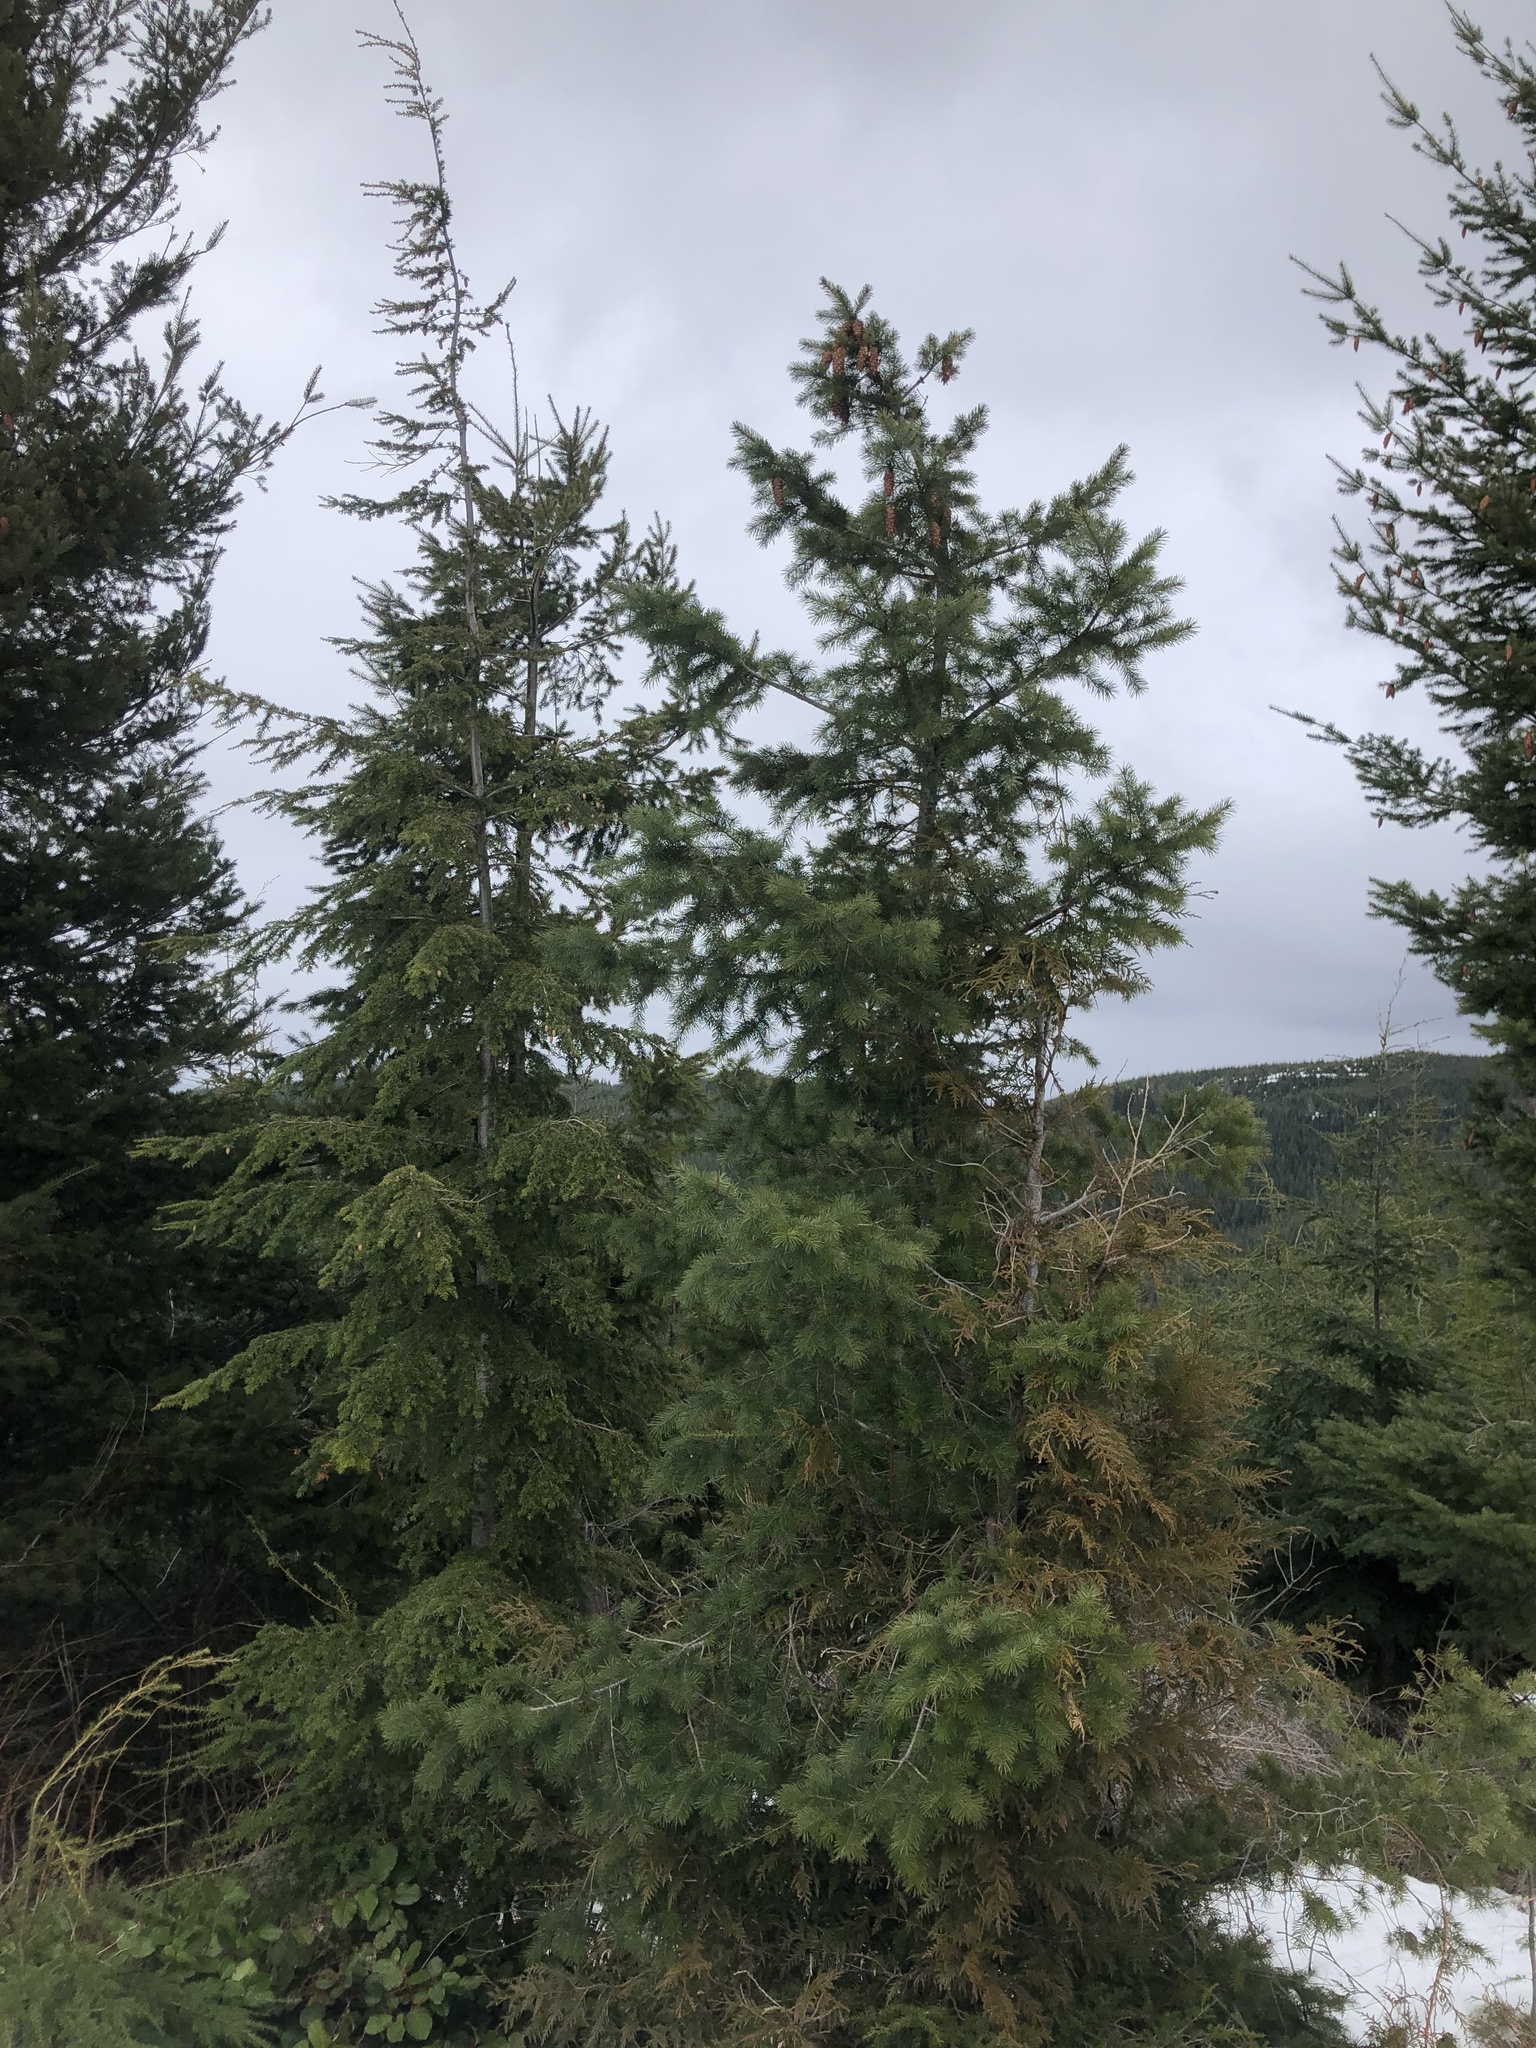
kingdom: Plantae
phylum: Tracheophyta
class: Pinopsida
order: Pinales
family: Pinaceae
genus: Pseudotsuga
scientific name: Pseudotsuga menziesii
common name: Douglas fir
